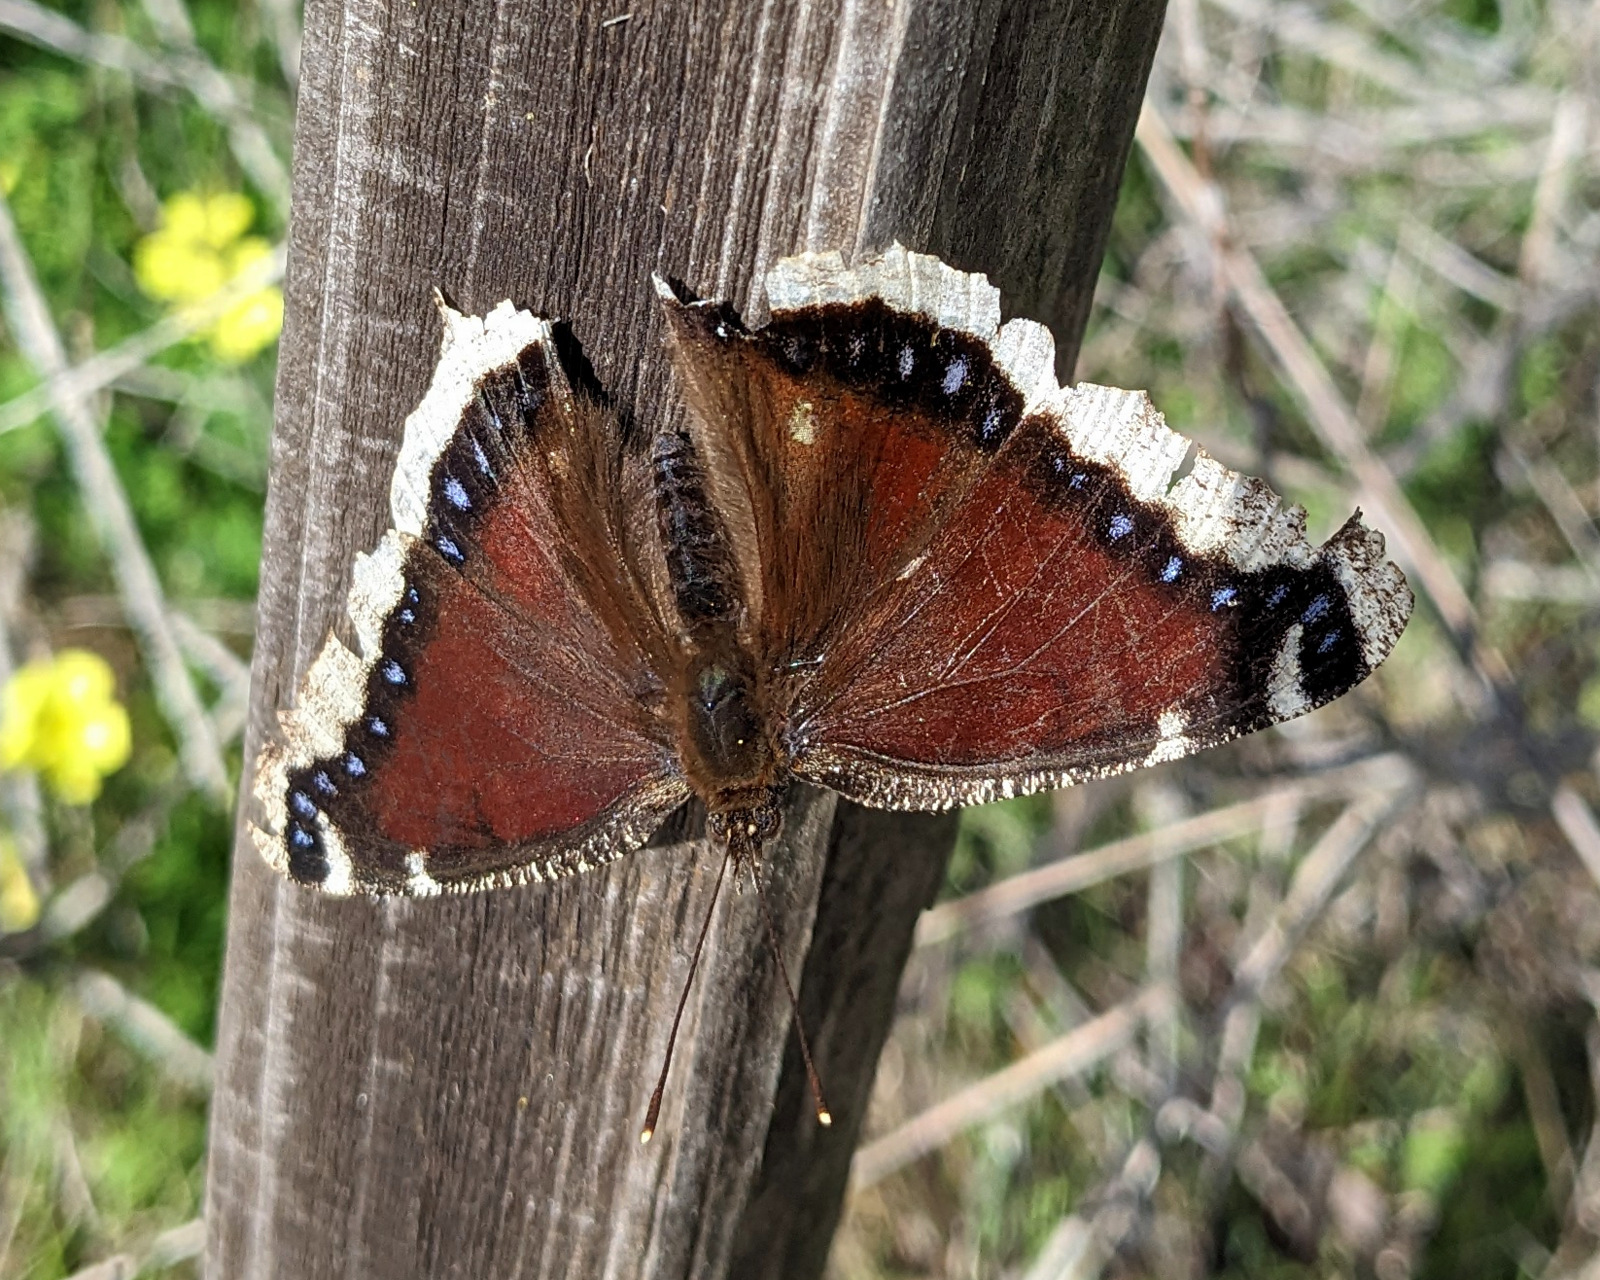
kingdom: Animalia
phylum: Arthropoda
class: Insecta
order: Lepidoptera
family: Nymphalidae
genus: Nymphalis
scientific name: Nymphalis antiopa
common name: Camberwell beauty
